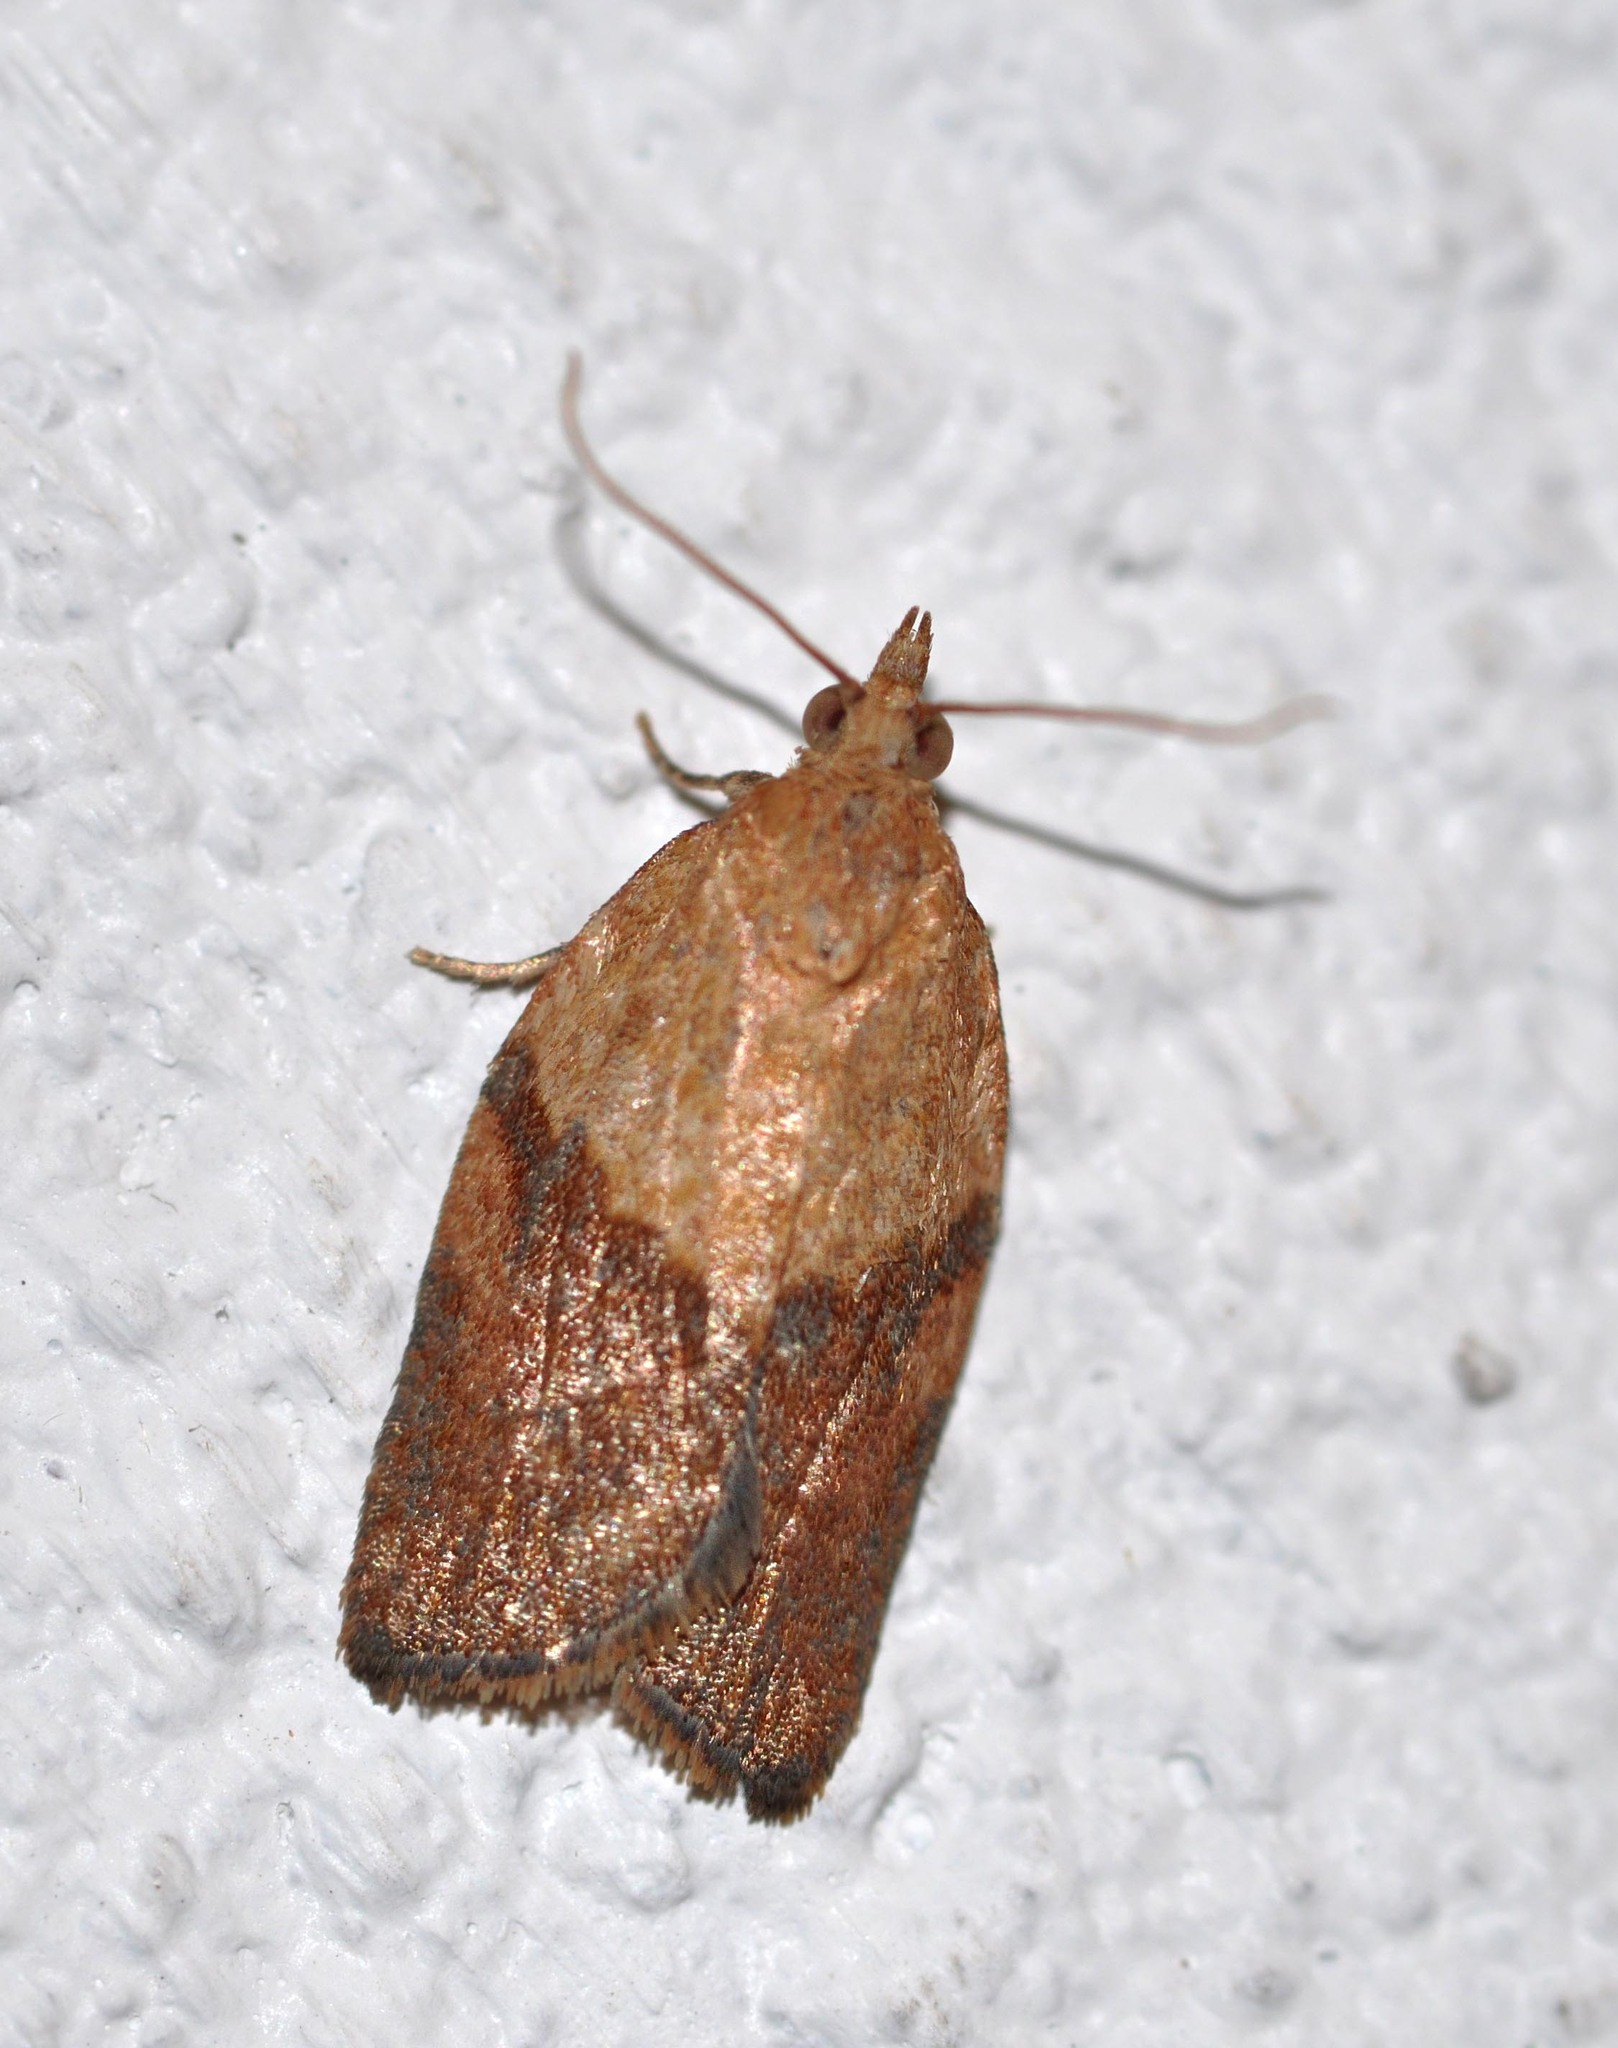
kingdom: Animalia
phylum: Arthropoda
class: Insecta
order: Lepidoptera
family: Tortricidae
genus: Epiphyas
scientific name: Epiphyas postvittana
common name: Light brown apple moth
